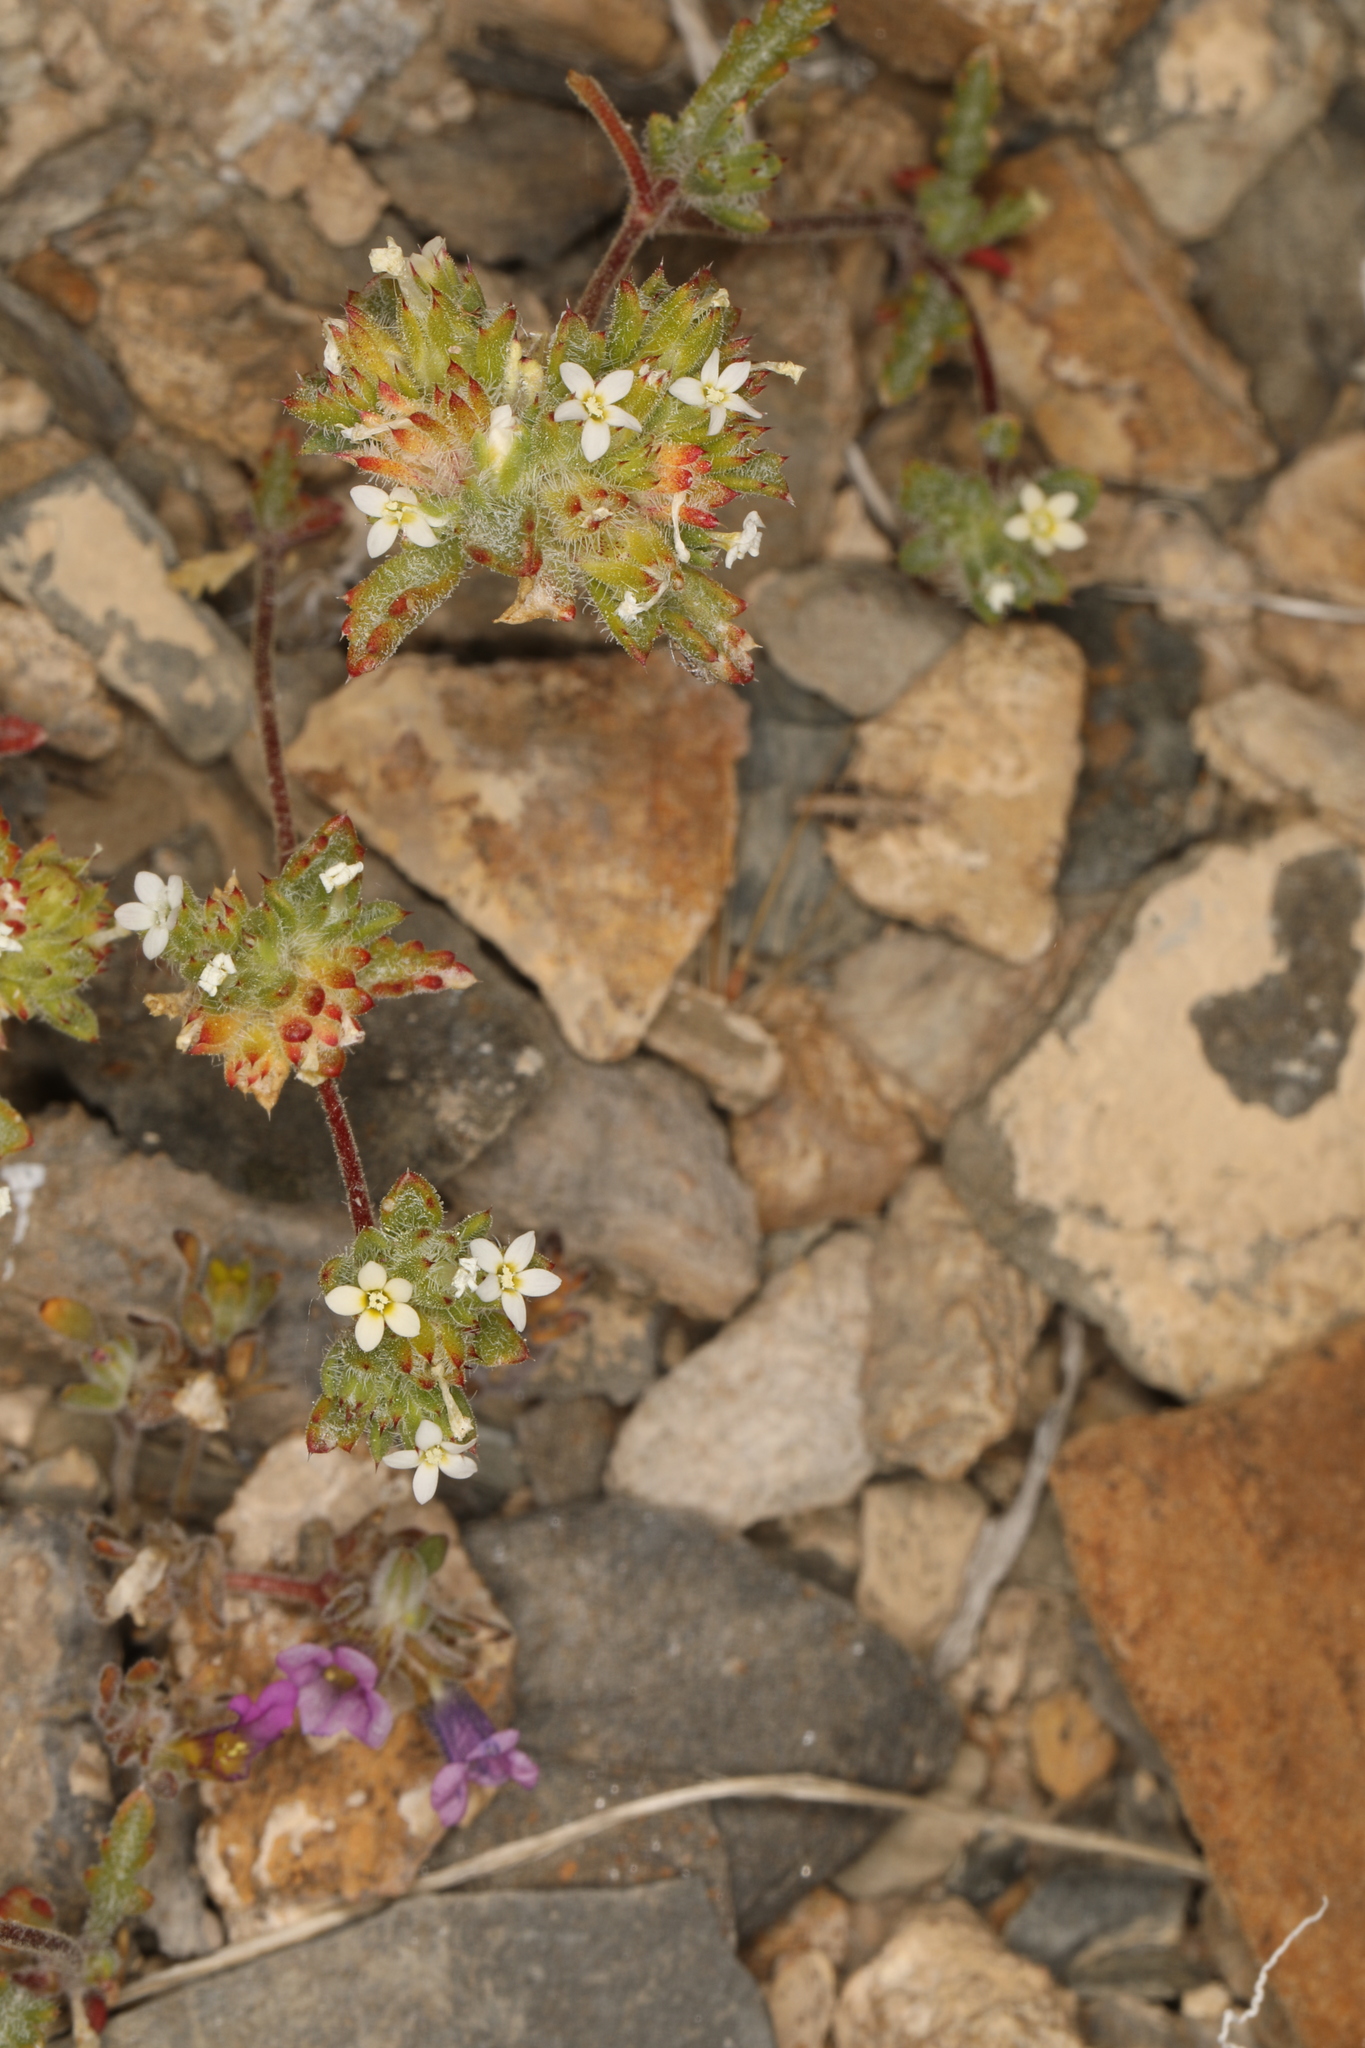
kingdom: Plantae
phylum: Tracheophyta
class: Magnoliopsida
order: Ericales
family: Polemoniaceae
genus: Ipomopsis
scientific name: Ipomopsis polycladon
